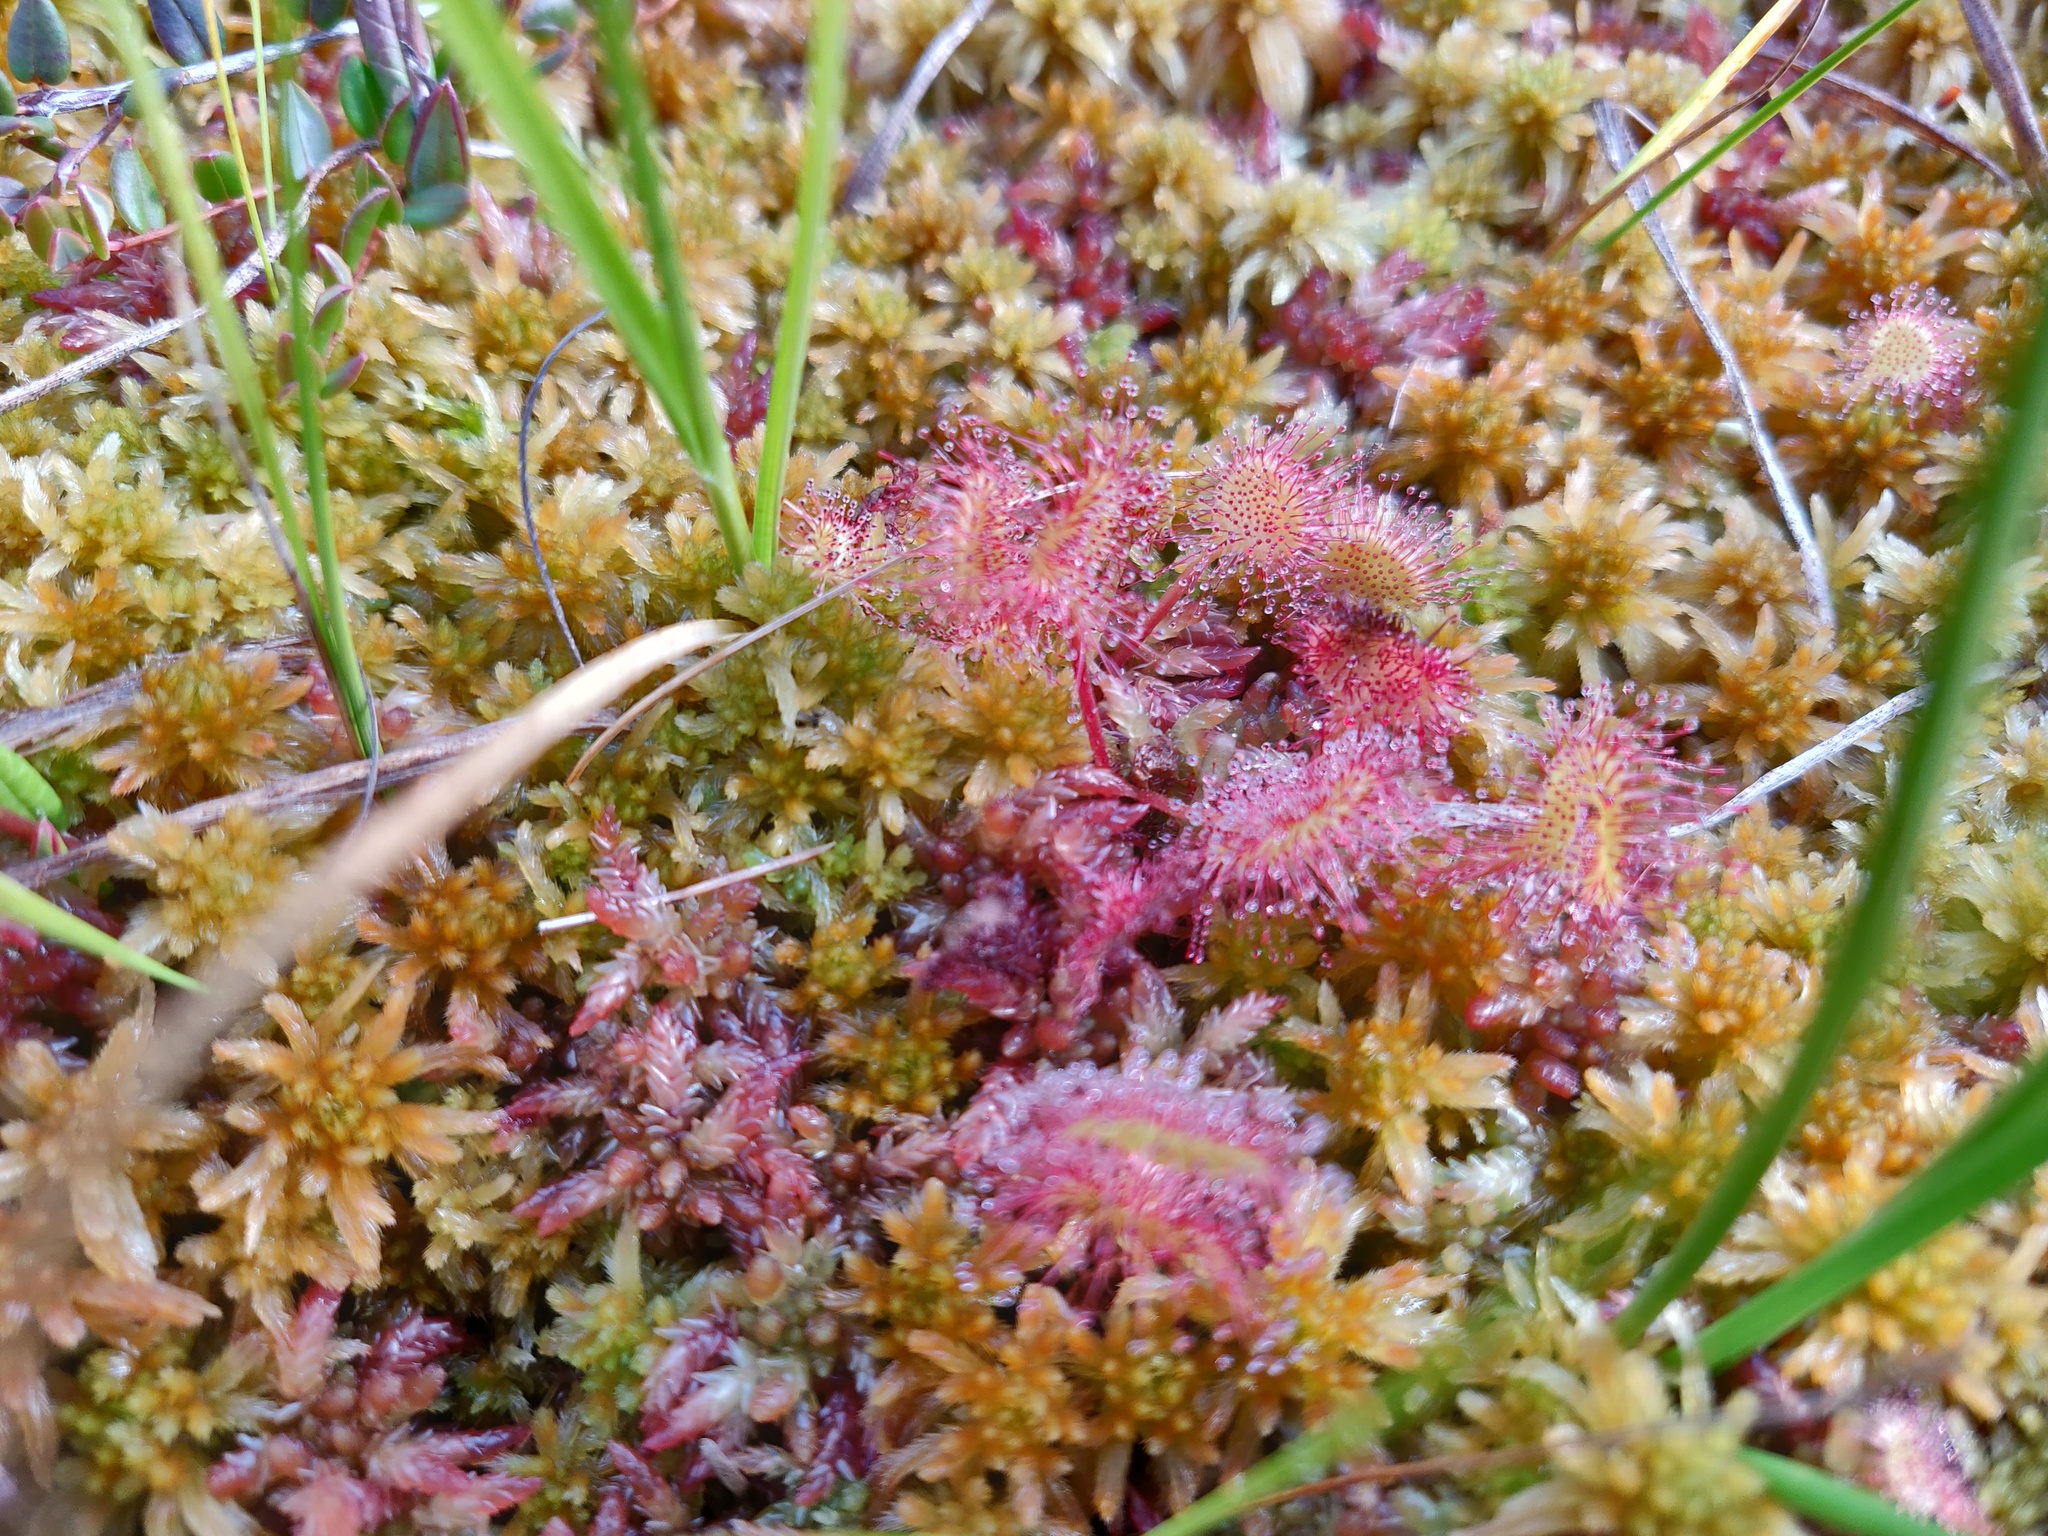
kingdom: Plantae
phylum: Tracheophyta
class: Magnoliopsida
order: Caryophyllales
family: Droseraceae
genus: Drosera
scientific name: Drosera rotundifolia
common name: Round-leaved sundew
